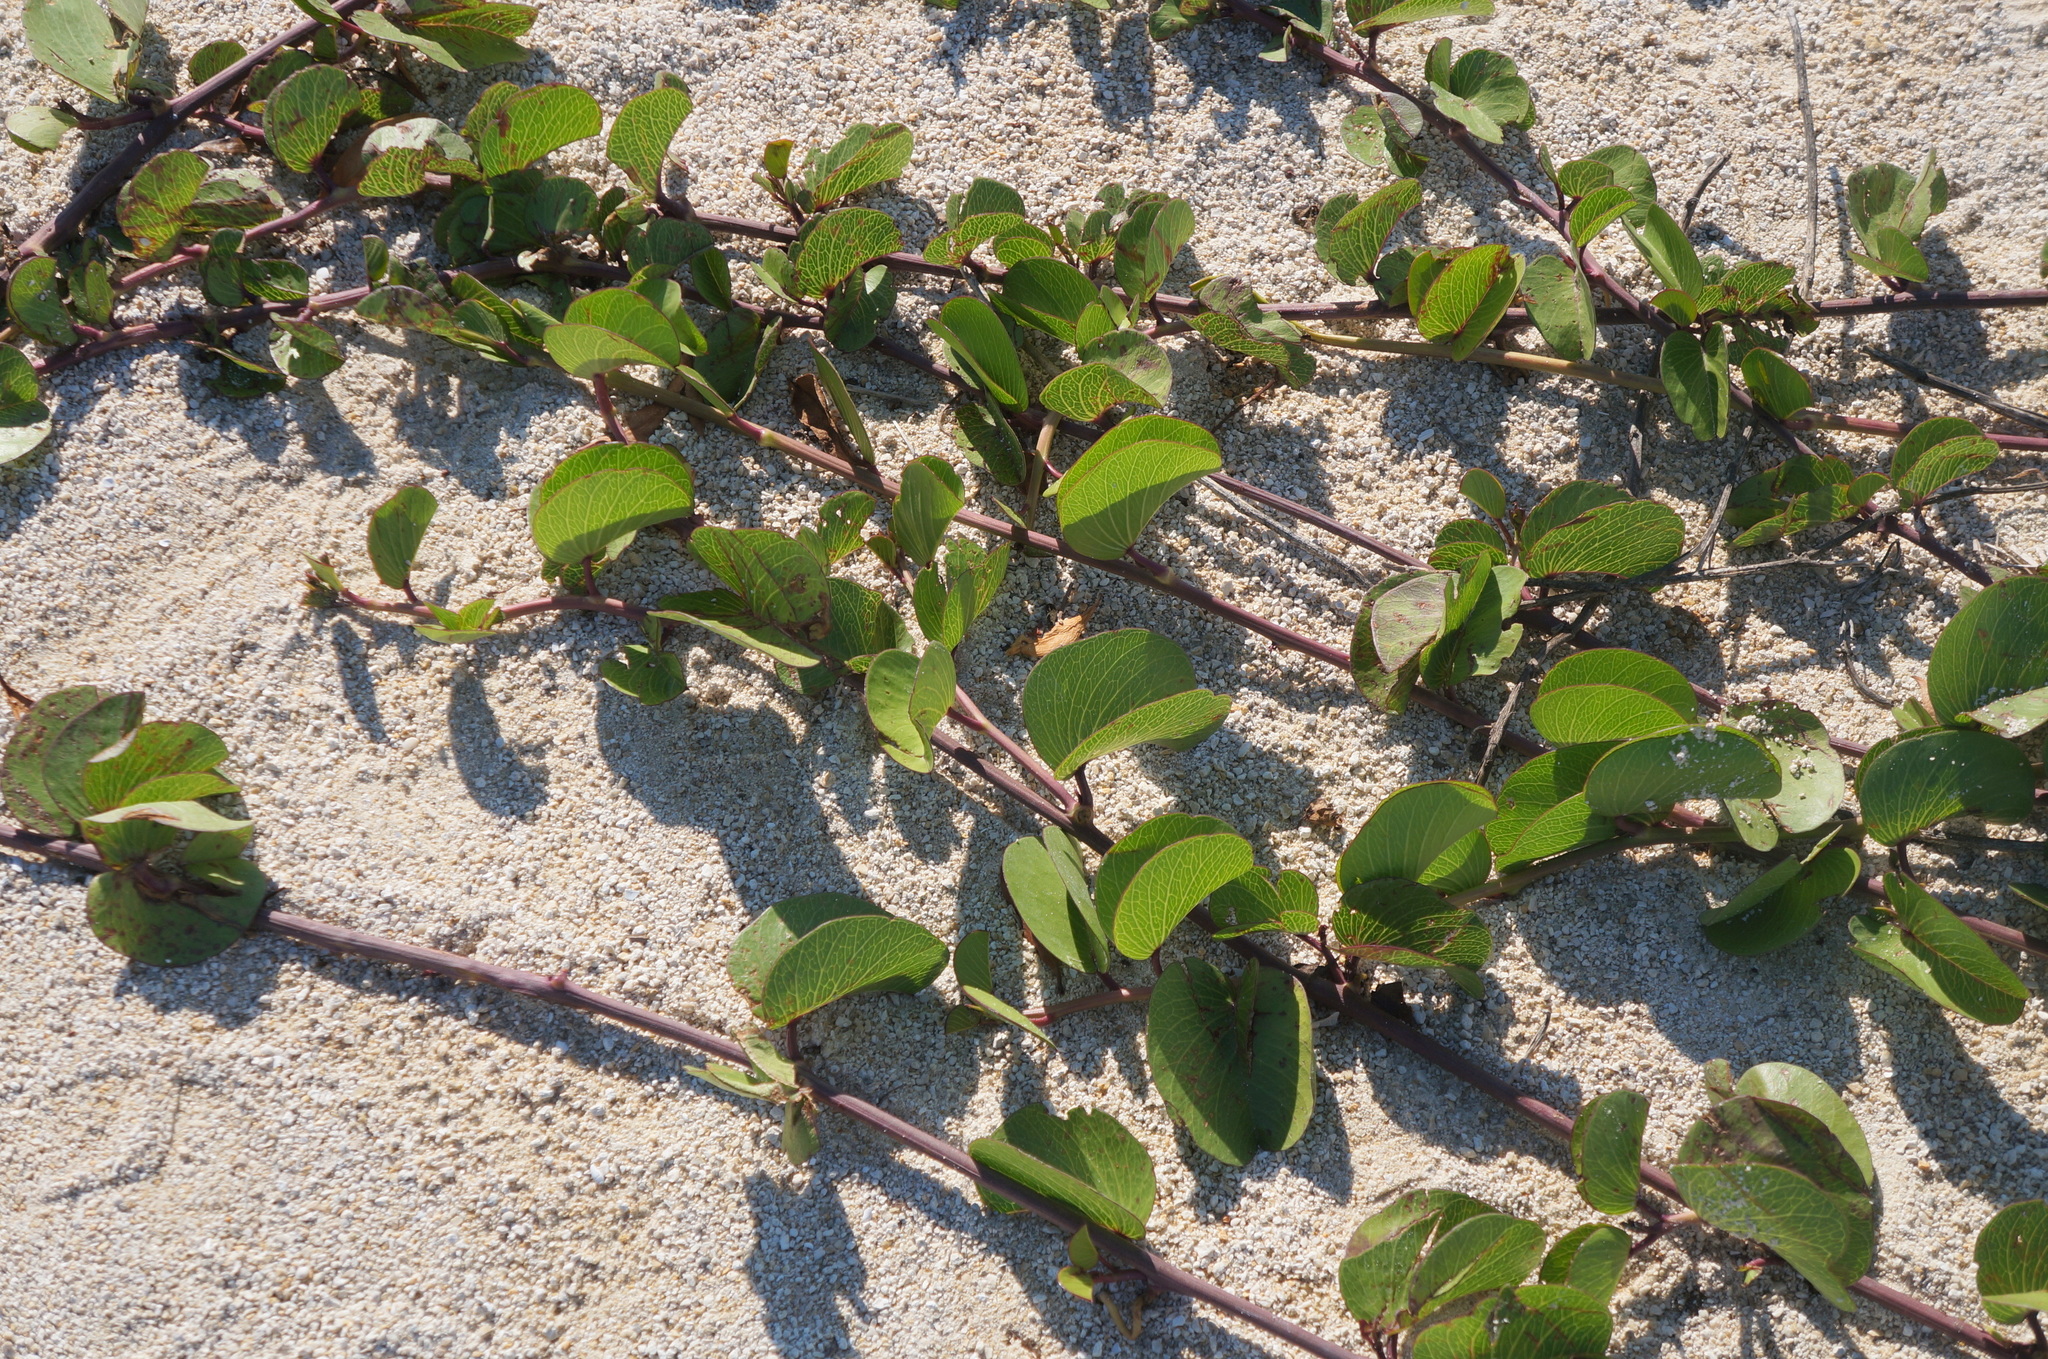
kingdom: Plantae
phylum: Tracheophyta
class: Magnoliopsida
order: Solanales
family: Convolvulaceae
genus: Ipomoea
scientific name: Ipomoea pes-caprae
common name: Beach morning glory
